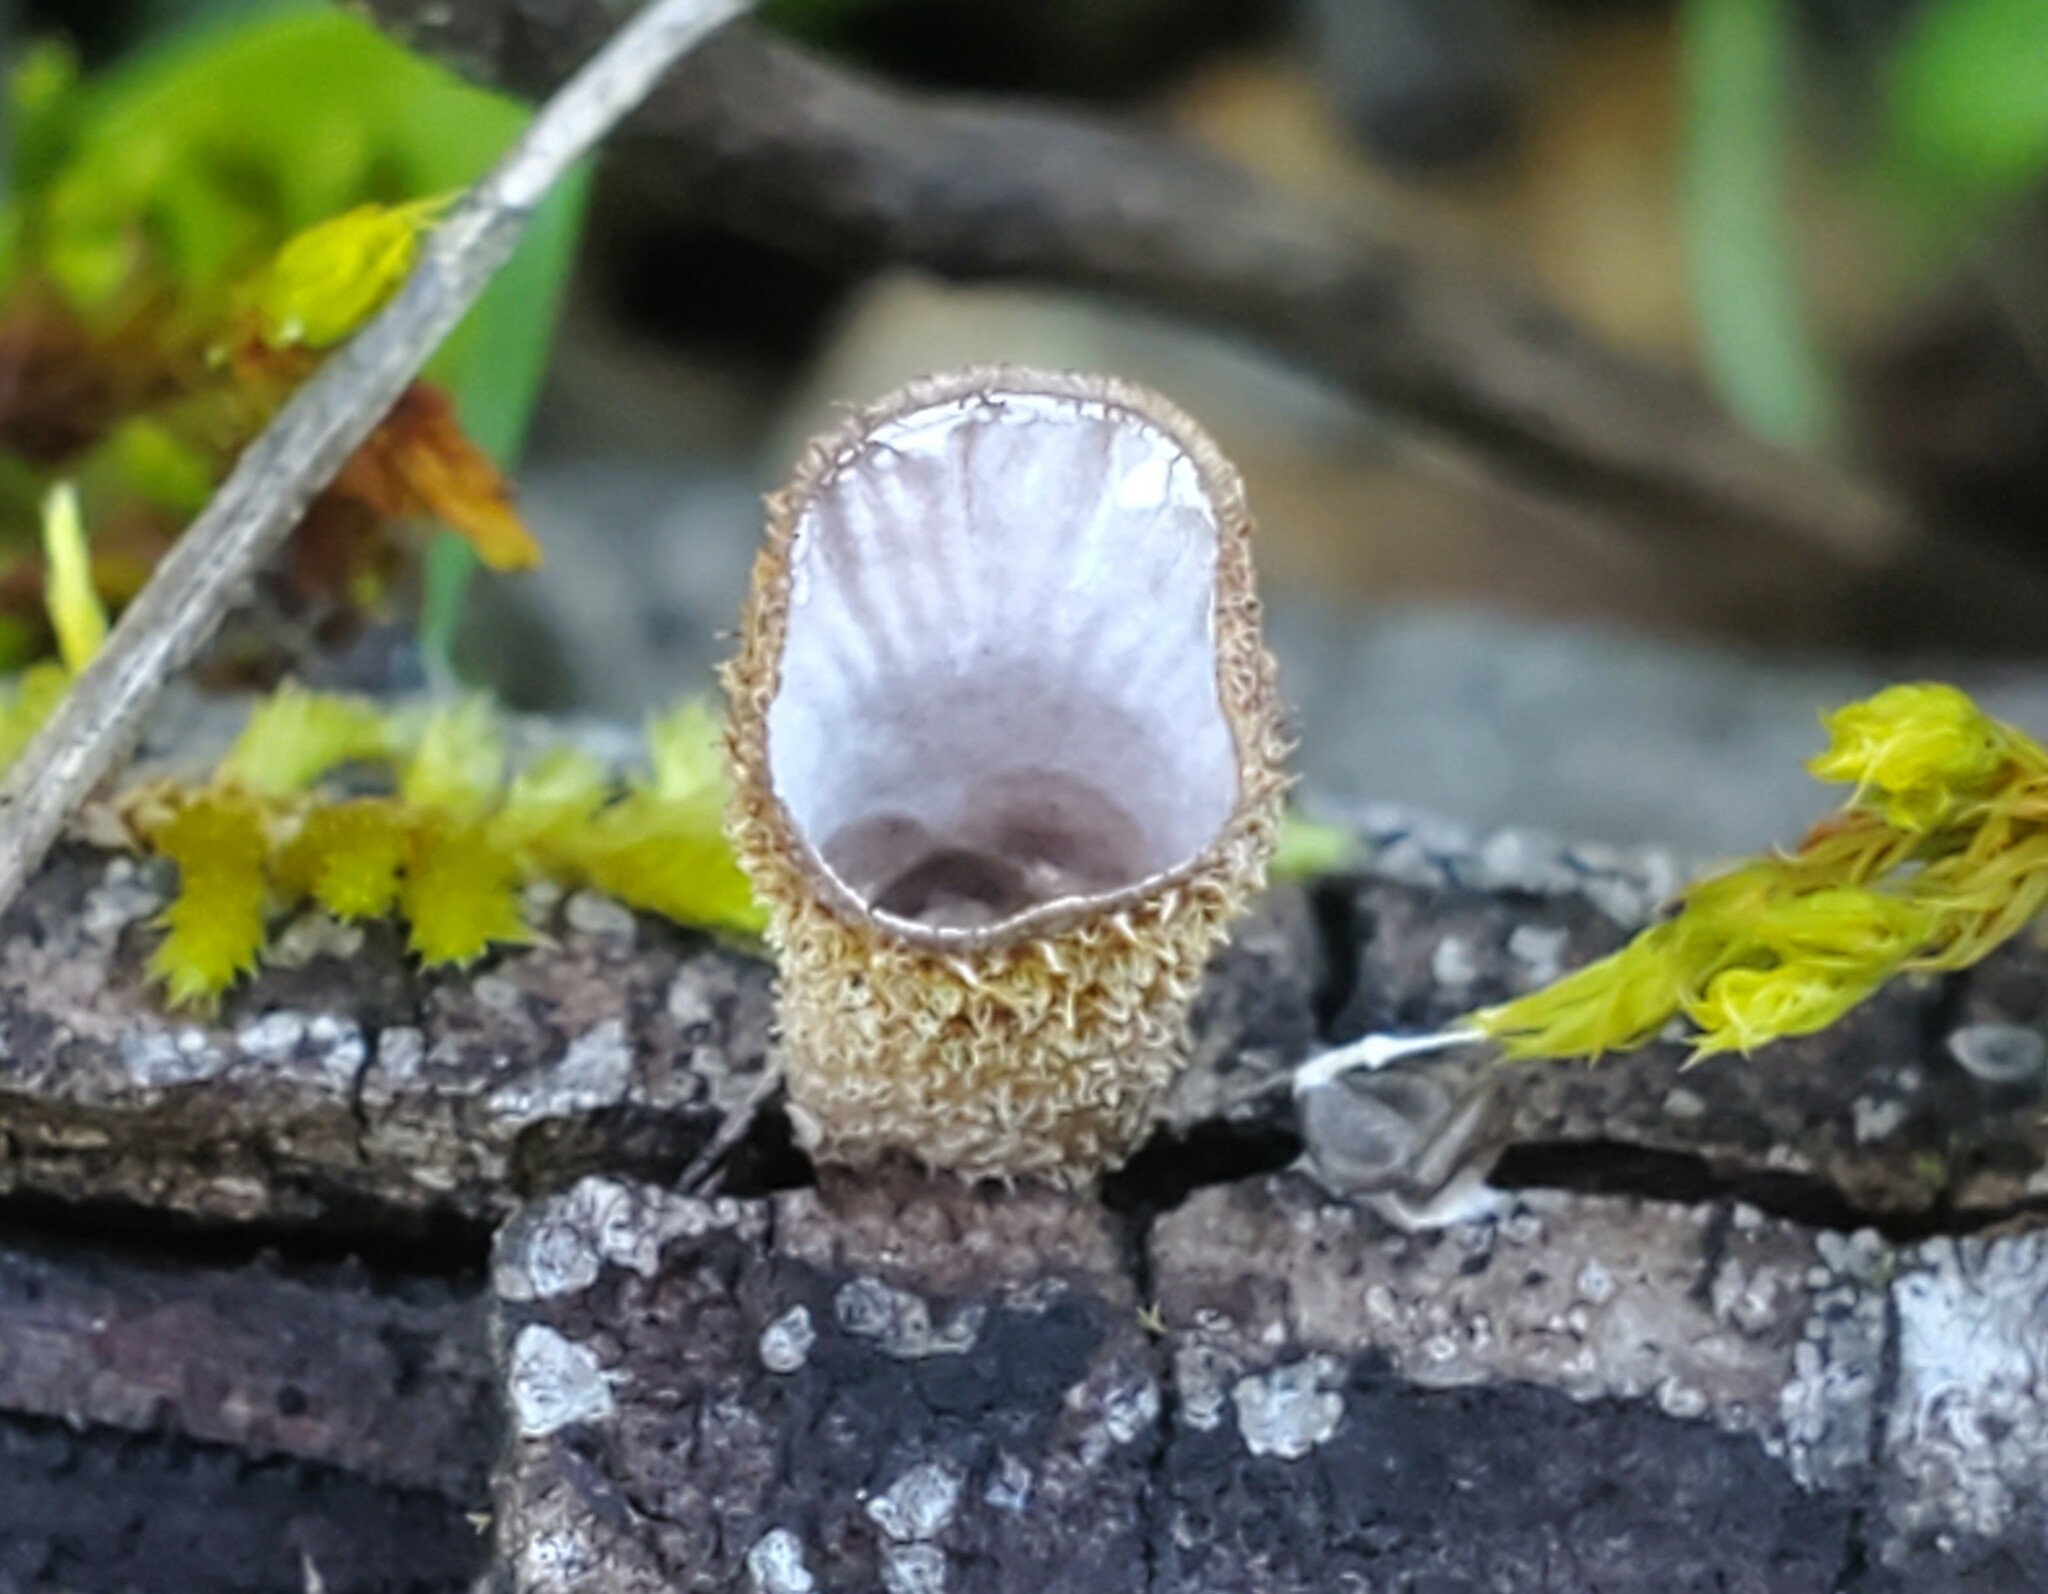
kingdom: Fungi
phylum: Basidiomycota
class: Agaricomycetes
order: Agaricales
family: Agaricaceae
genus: Cyathus
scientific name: Cyathus striatus
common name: Fluted bird's nest
